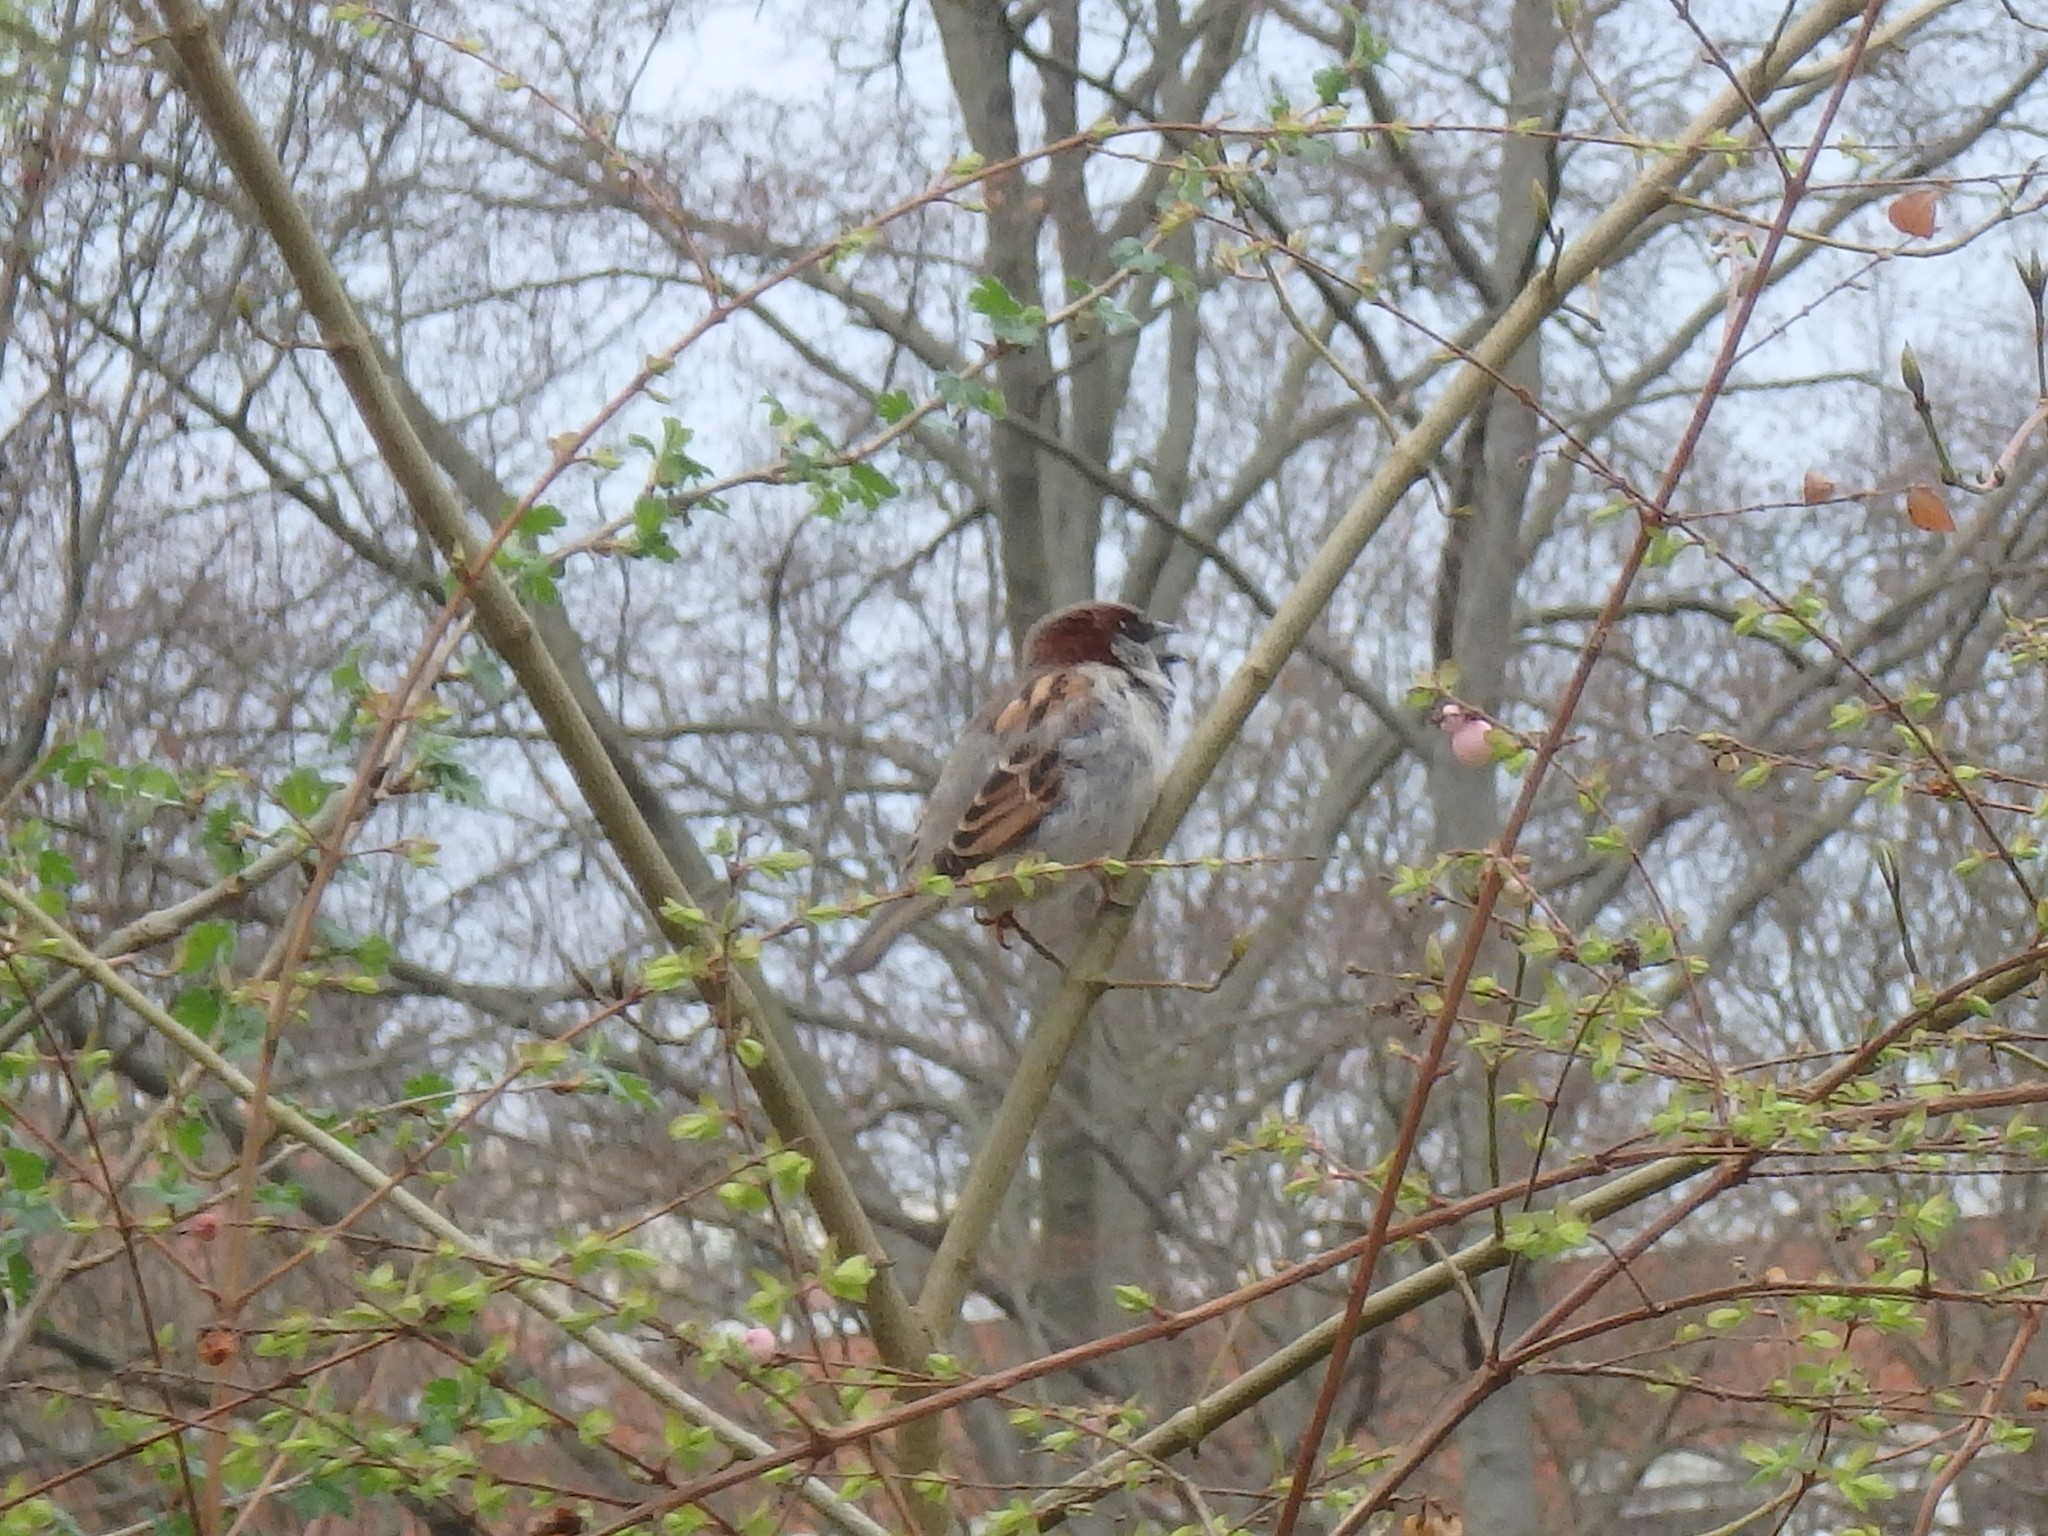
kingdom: Animalia
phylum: Chordata
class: Aves
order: Passeriformes
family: Passeridae
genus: Passer
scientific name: Passer domesticus
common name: House sparrow
